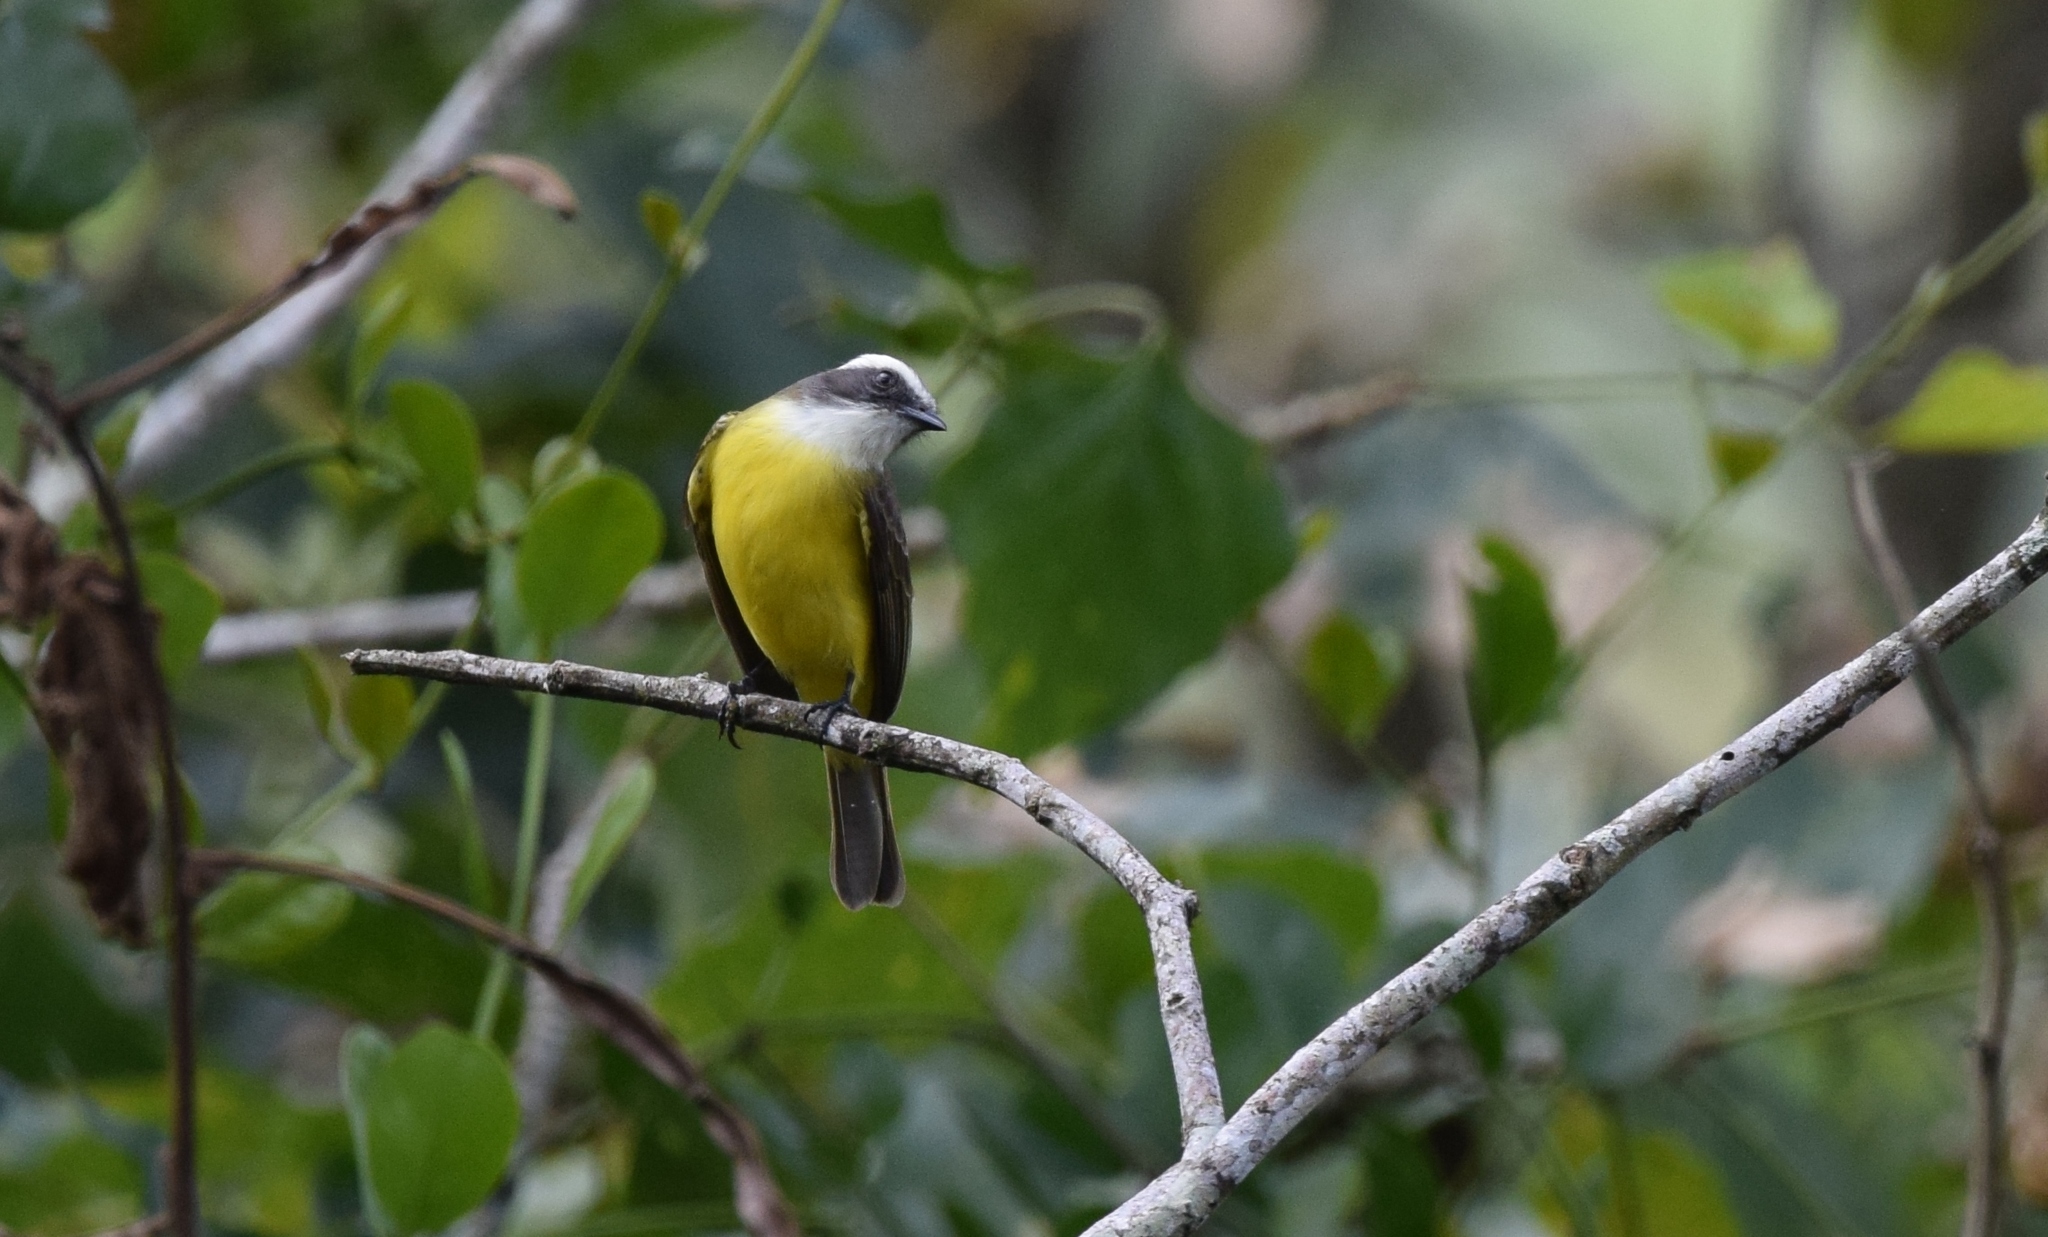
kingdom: Animalia
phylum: Chordata
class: Aves
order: Passeriformes
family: Tyrannidae
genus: Myiozetetes
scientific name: Myiozetetes similis
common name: Social flycatcher
